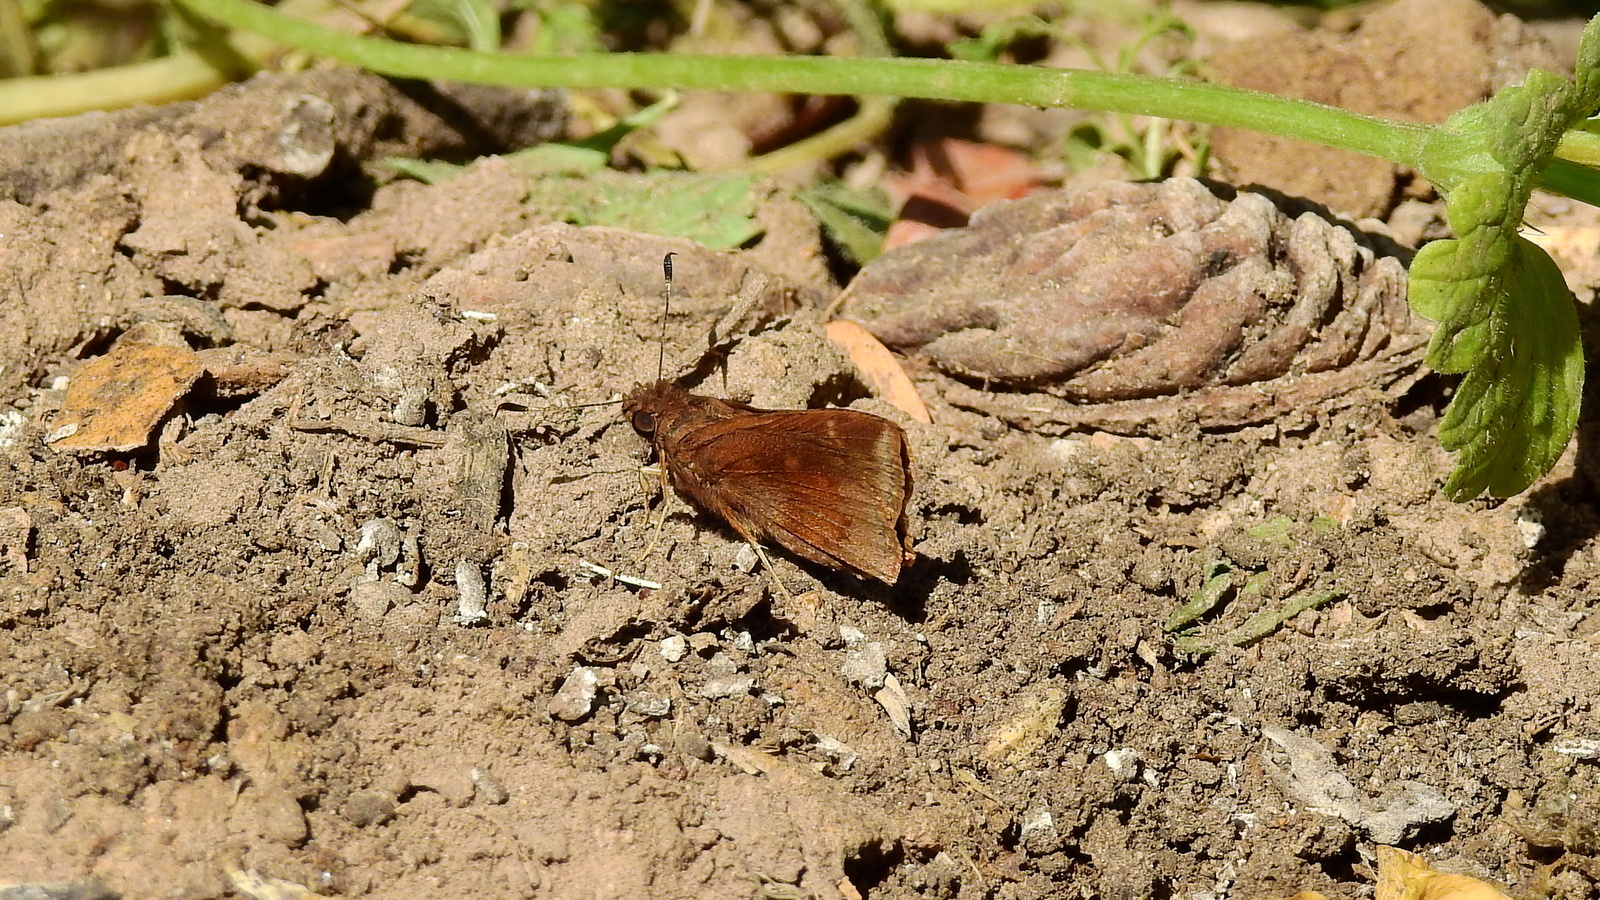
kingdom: Animalia
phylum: Arthropoda
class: Insecta
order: Lepidoptera
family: Hesperiidae
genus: Quinta
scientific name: Quinta cannae
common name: Canna skipper
